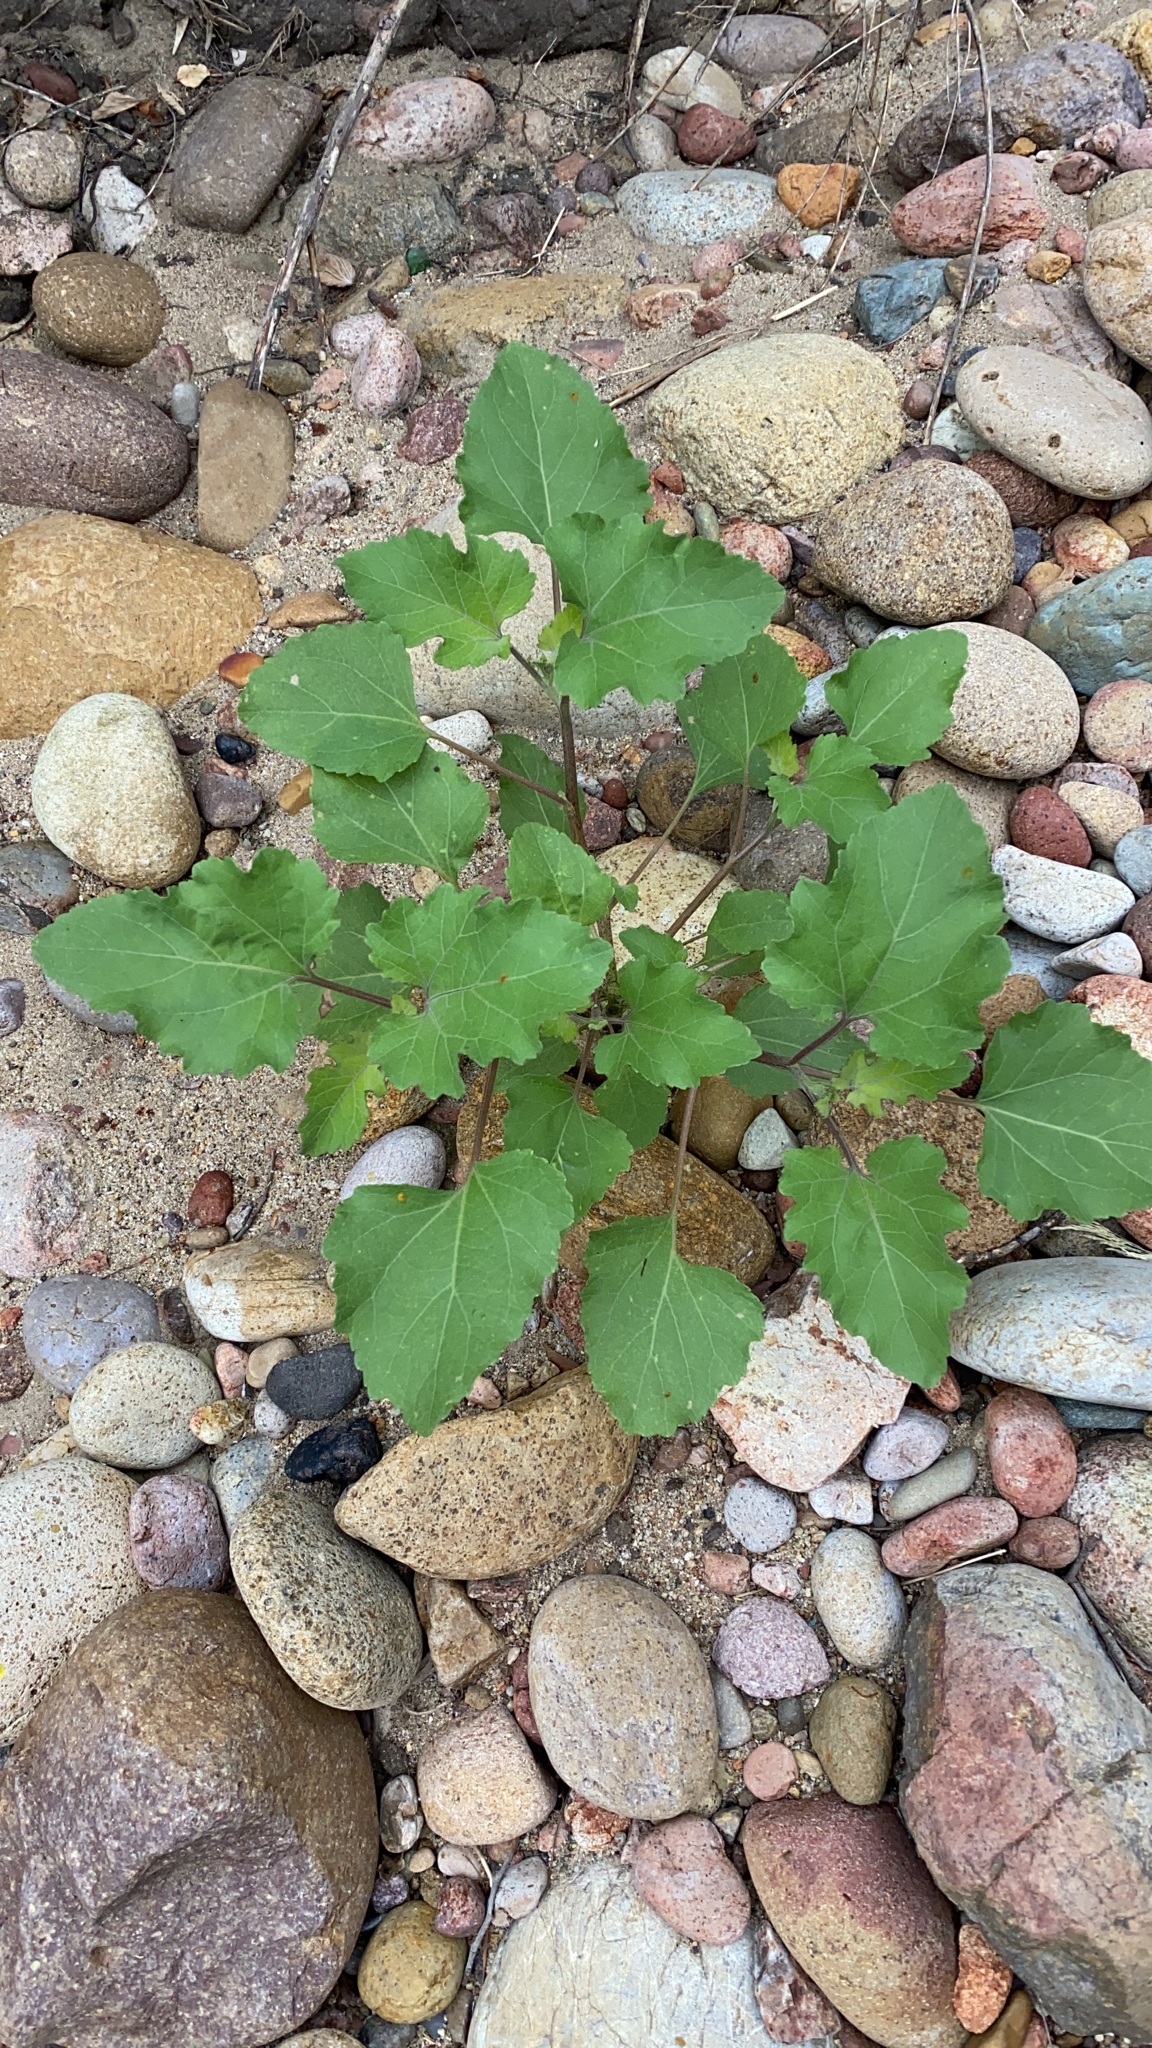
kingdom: Plantae
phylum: Tracheophyta
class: Magnoliopsida
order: Asterales
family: Asteraceae
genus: Xanthium
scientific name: Xanthium strumarium
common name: Rough cocklebur
